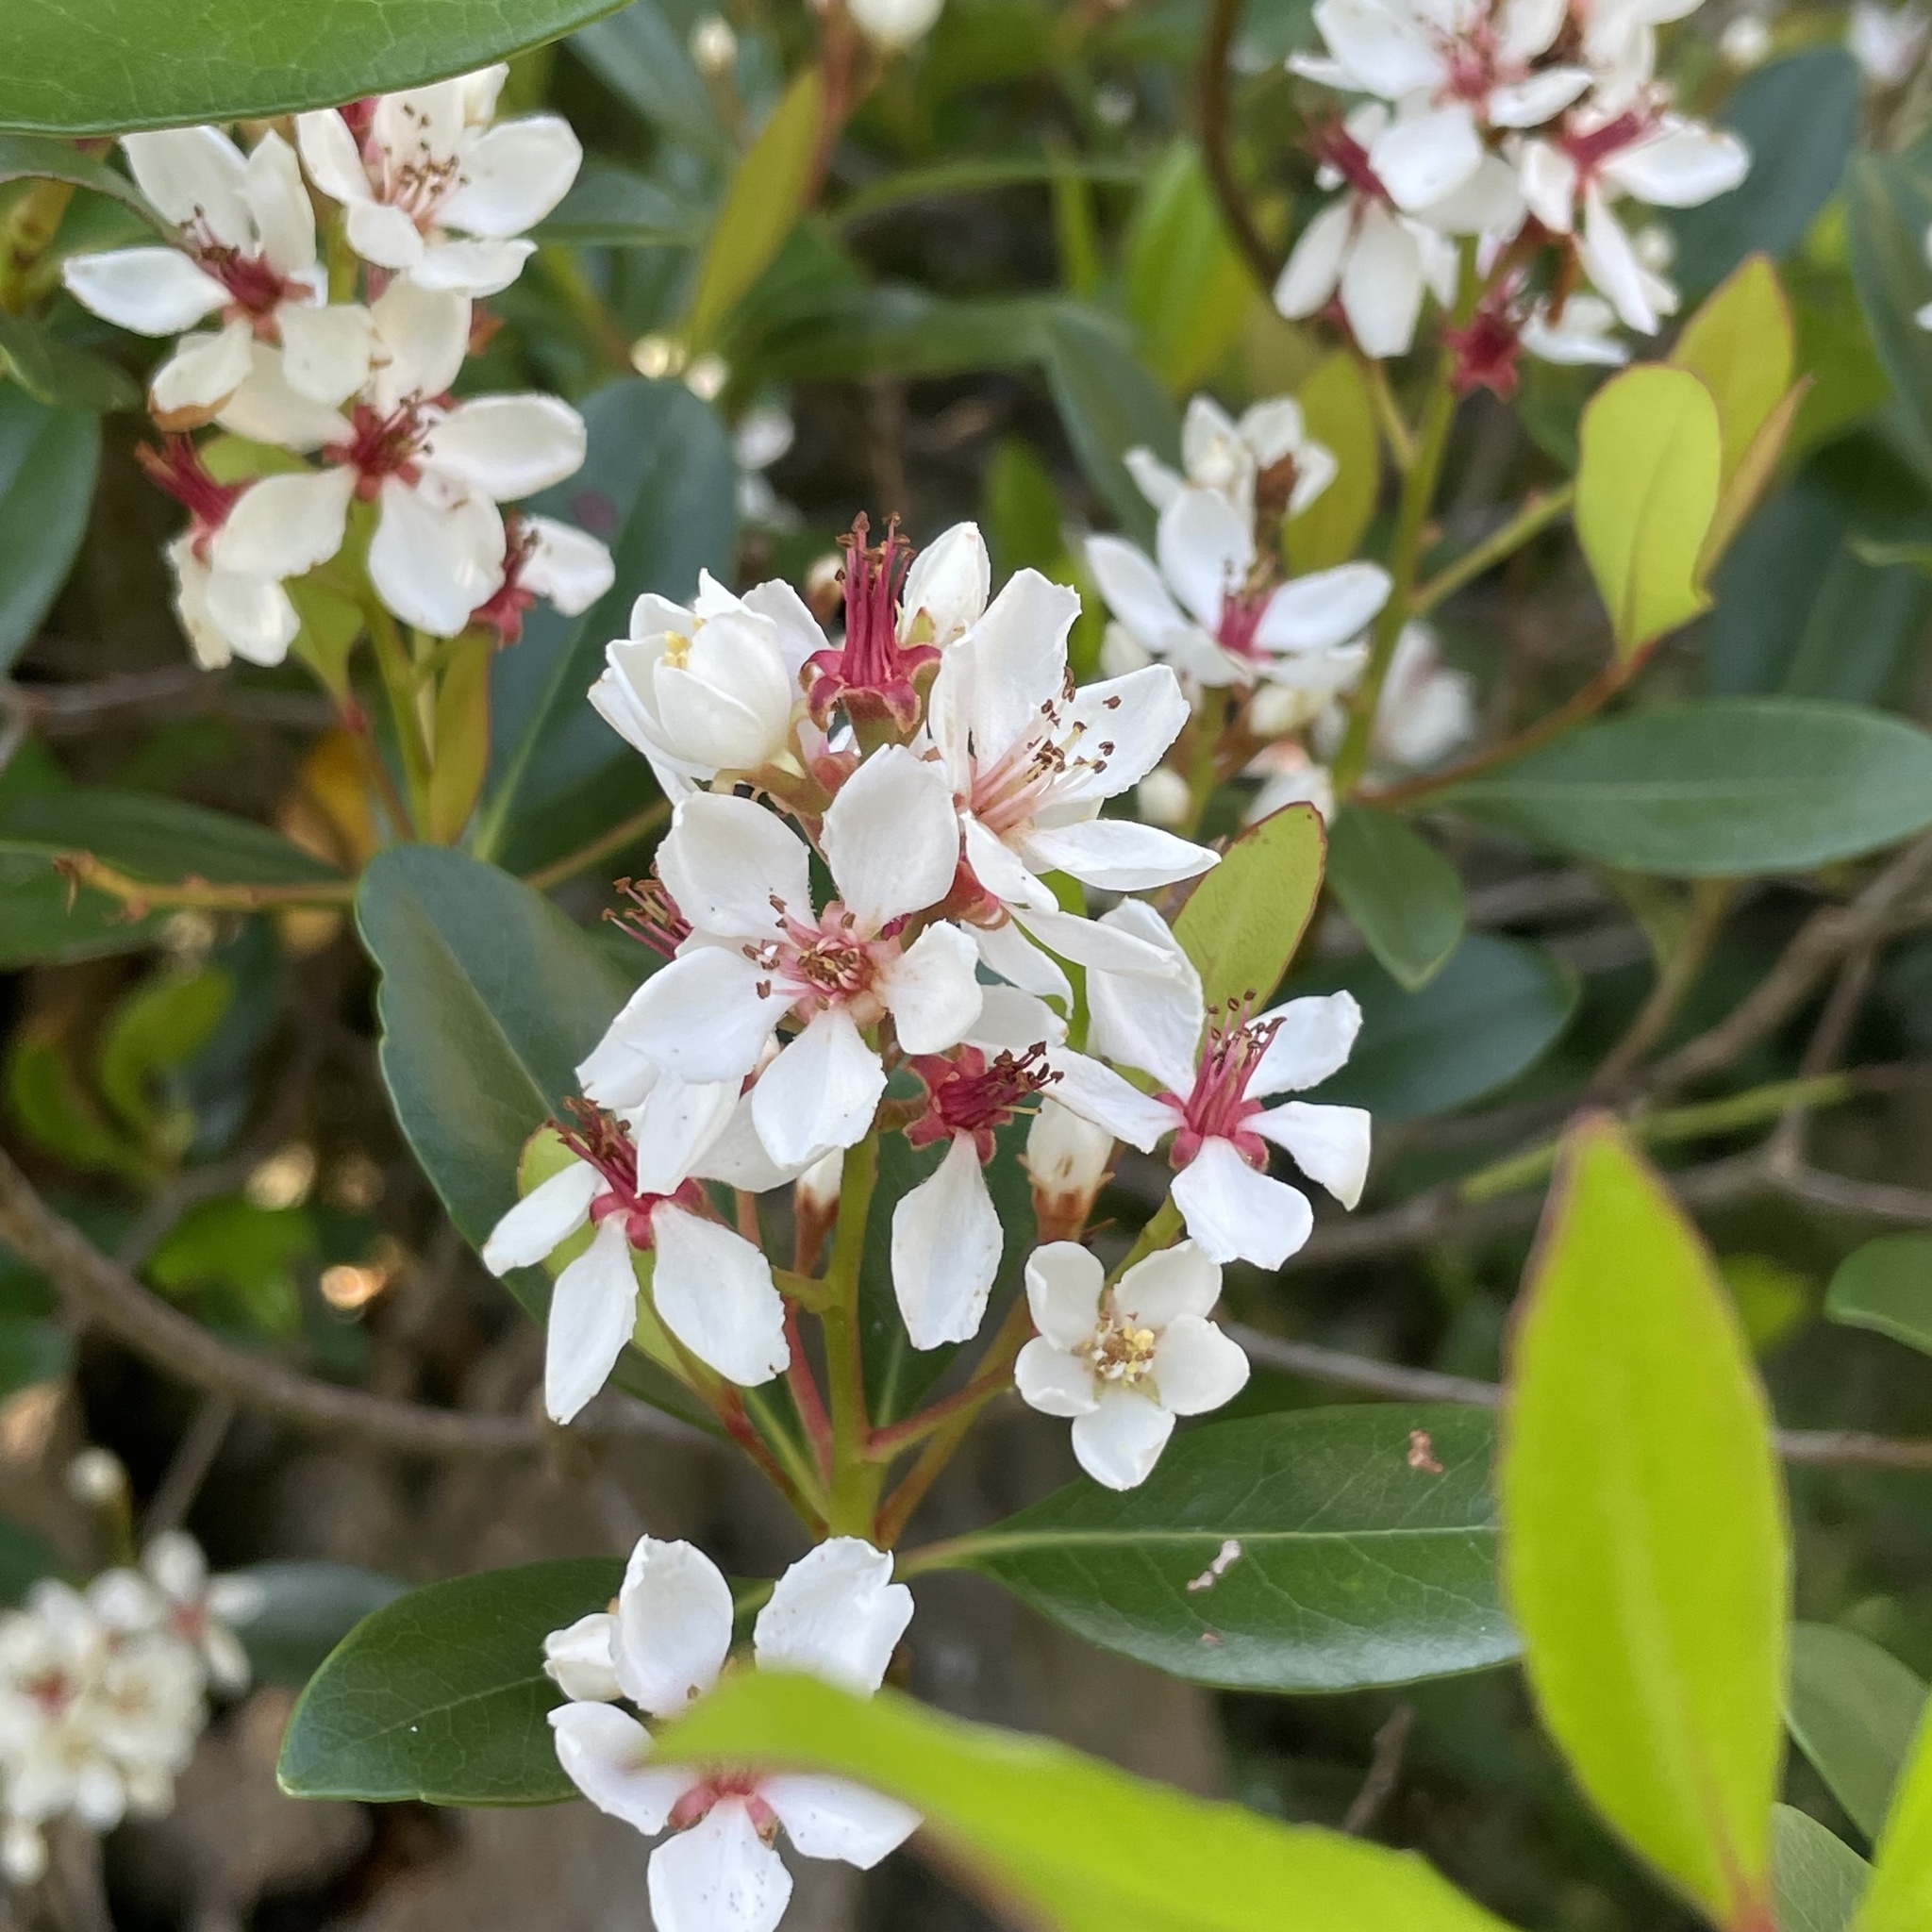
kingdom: Plantae
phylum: Tracheophyta
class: Magnoliopsida
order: Rosales
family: Rosaceae
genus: Rhaphiolepis
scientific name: Rhaphiolepis umbellata
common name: Yedda-hawthorn
